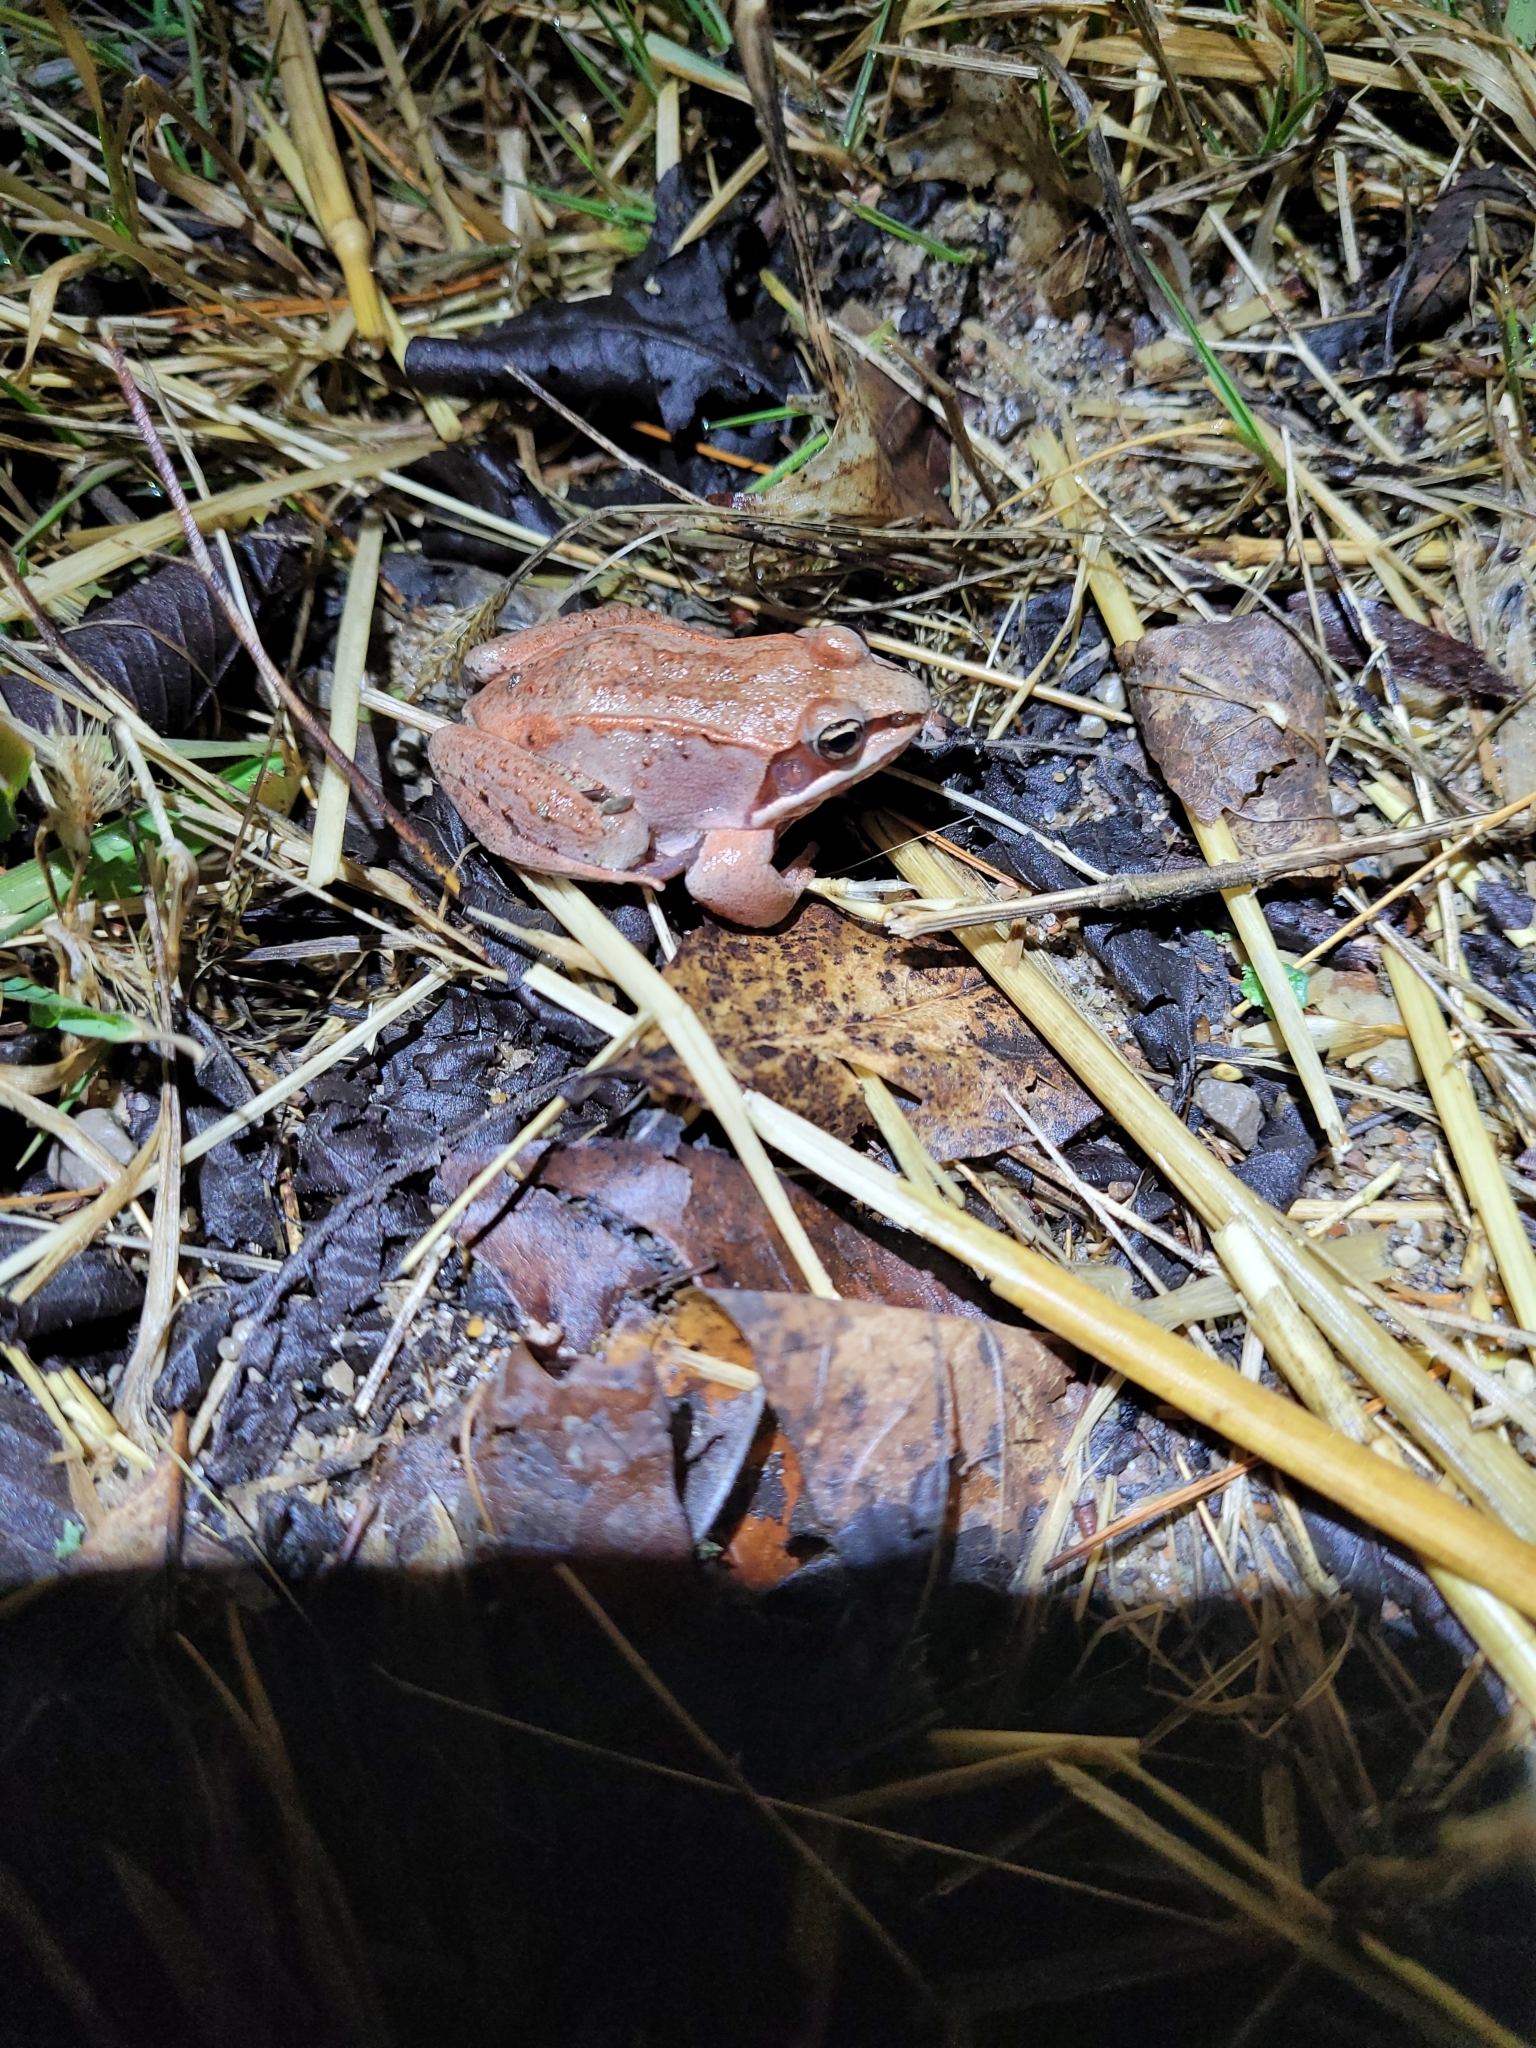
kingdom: Animalia
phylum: Chordata
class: Amphibia
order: Anura
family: Ranidae
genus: Lithobates
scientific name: Lithobates sylvaticus
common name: Wood frog
